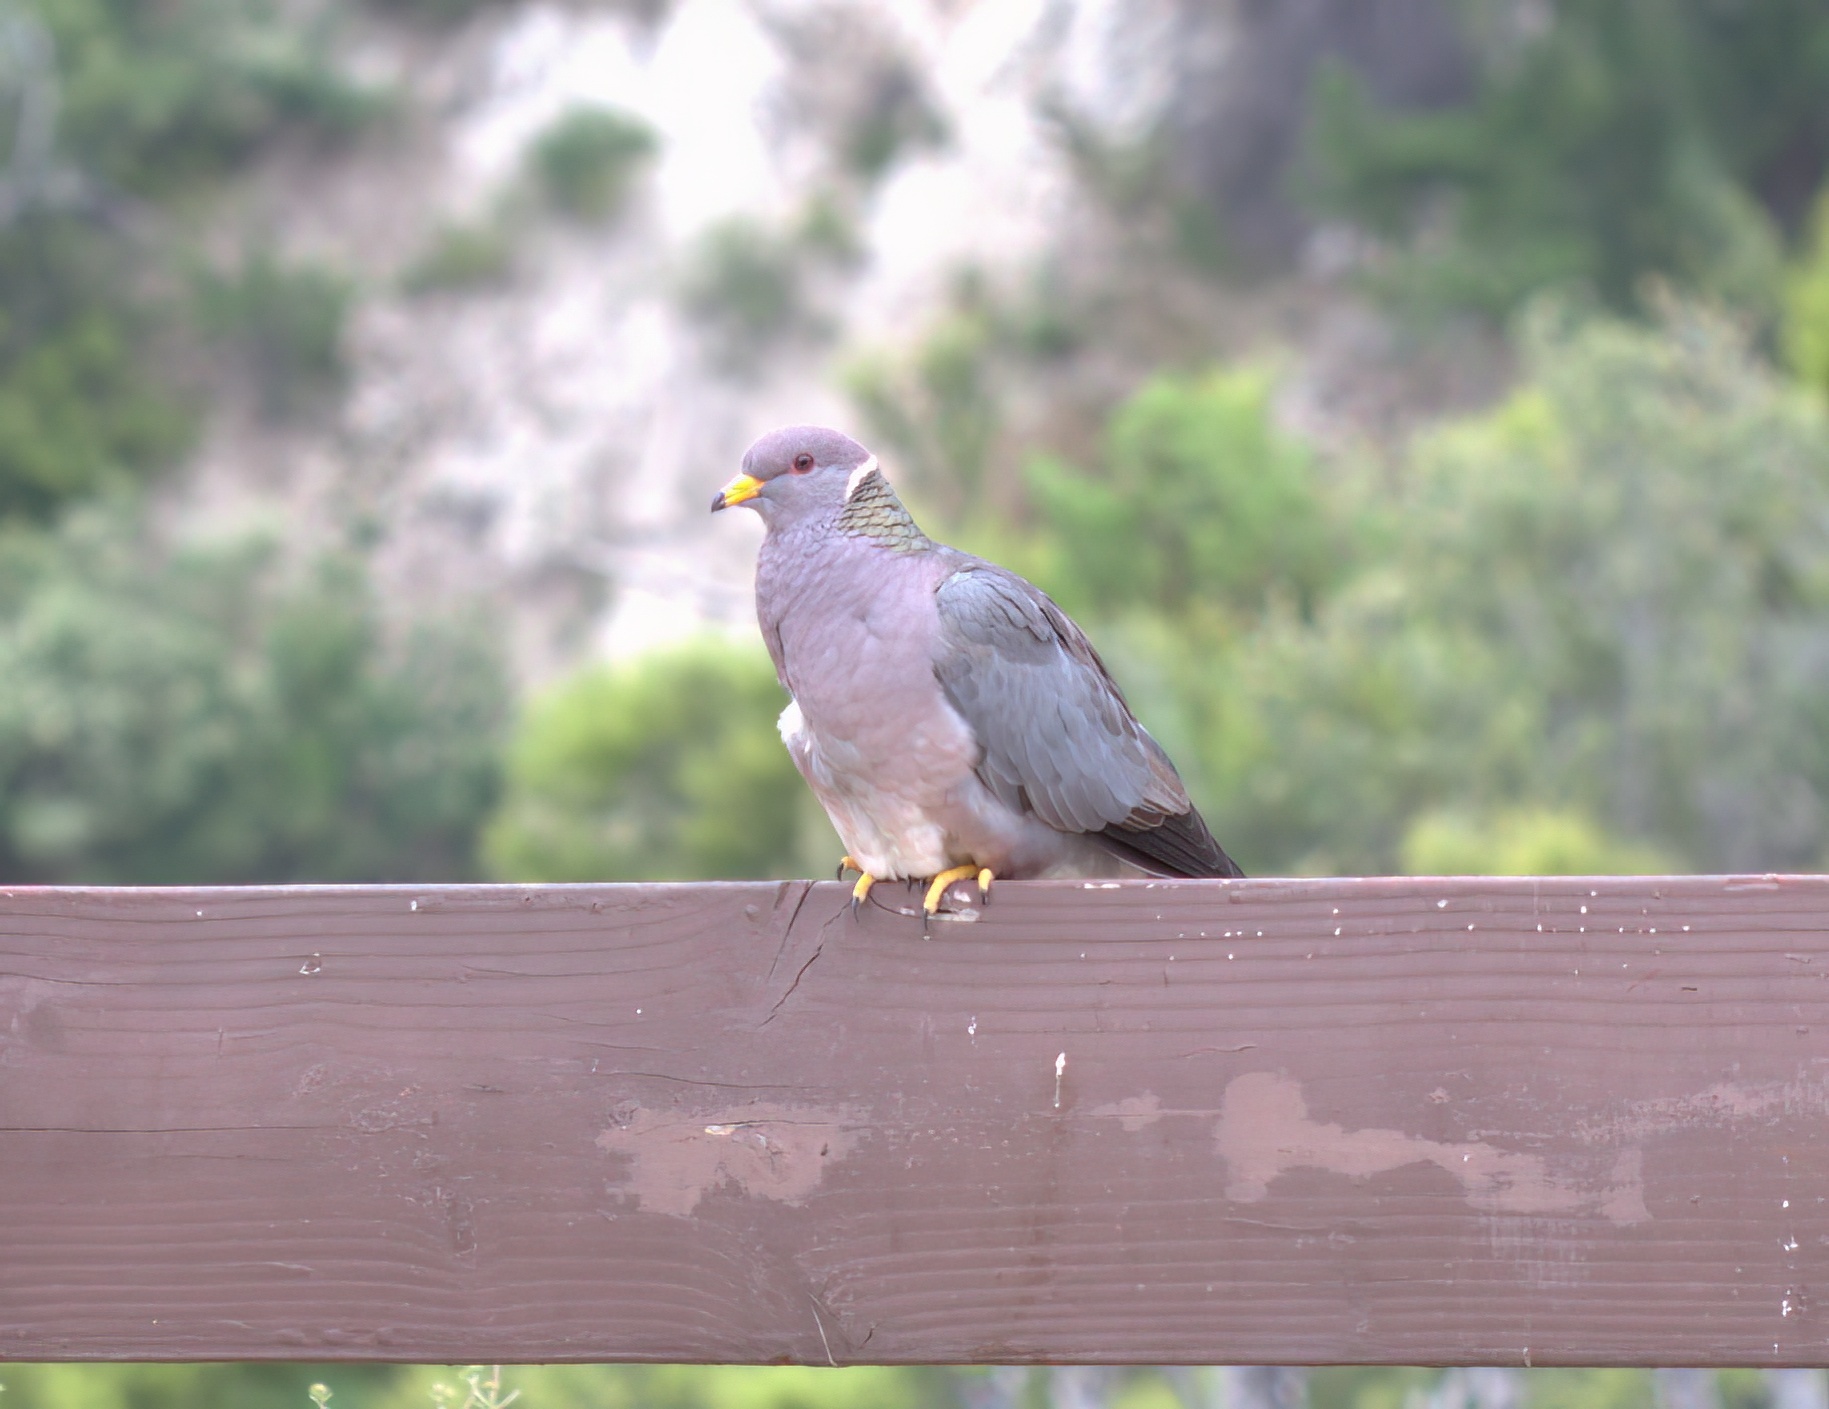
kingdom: Animalia
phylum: Chordata
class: Aves
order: Columbiformes
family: Columbidae
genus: Patagioenas
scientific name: Patagioenas fasciata
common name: Band-tailed pigeon
